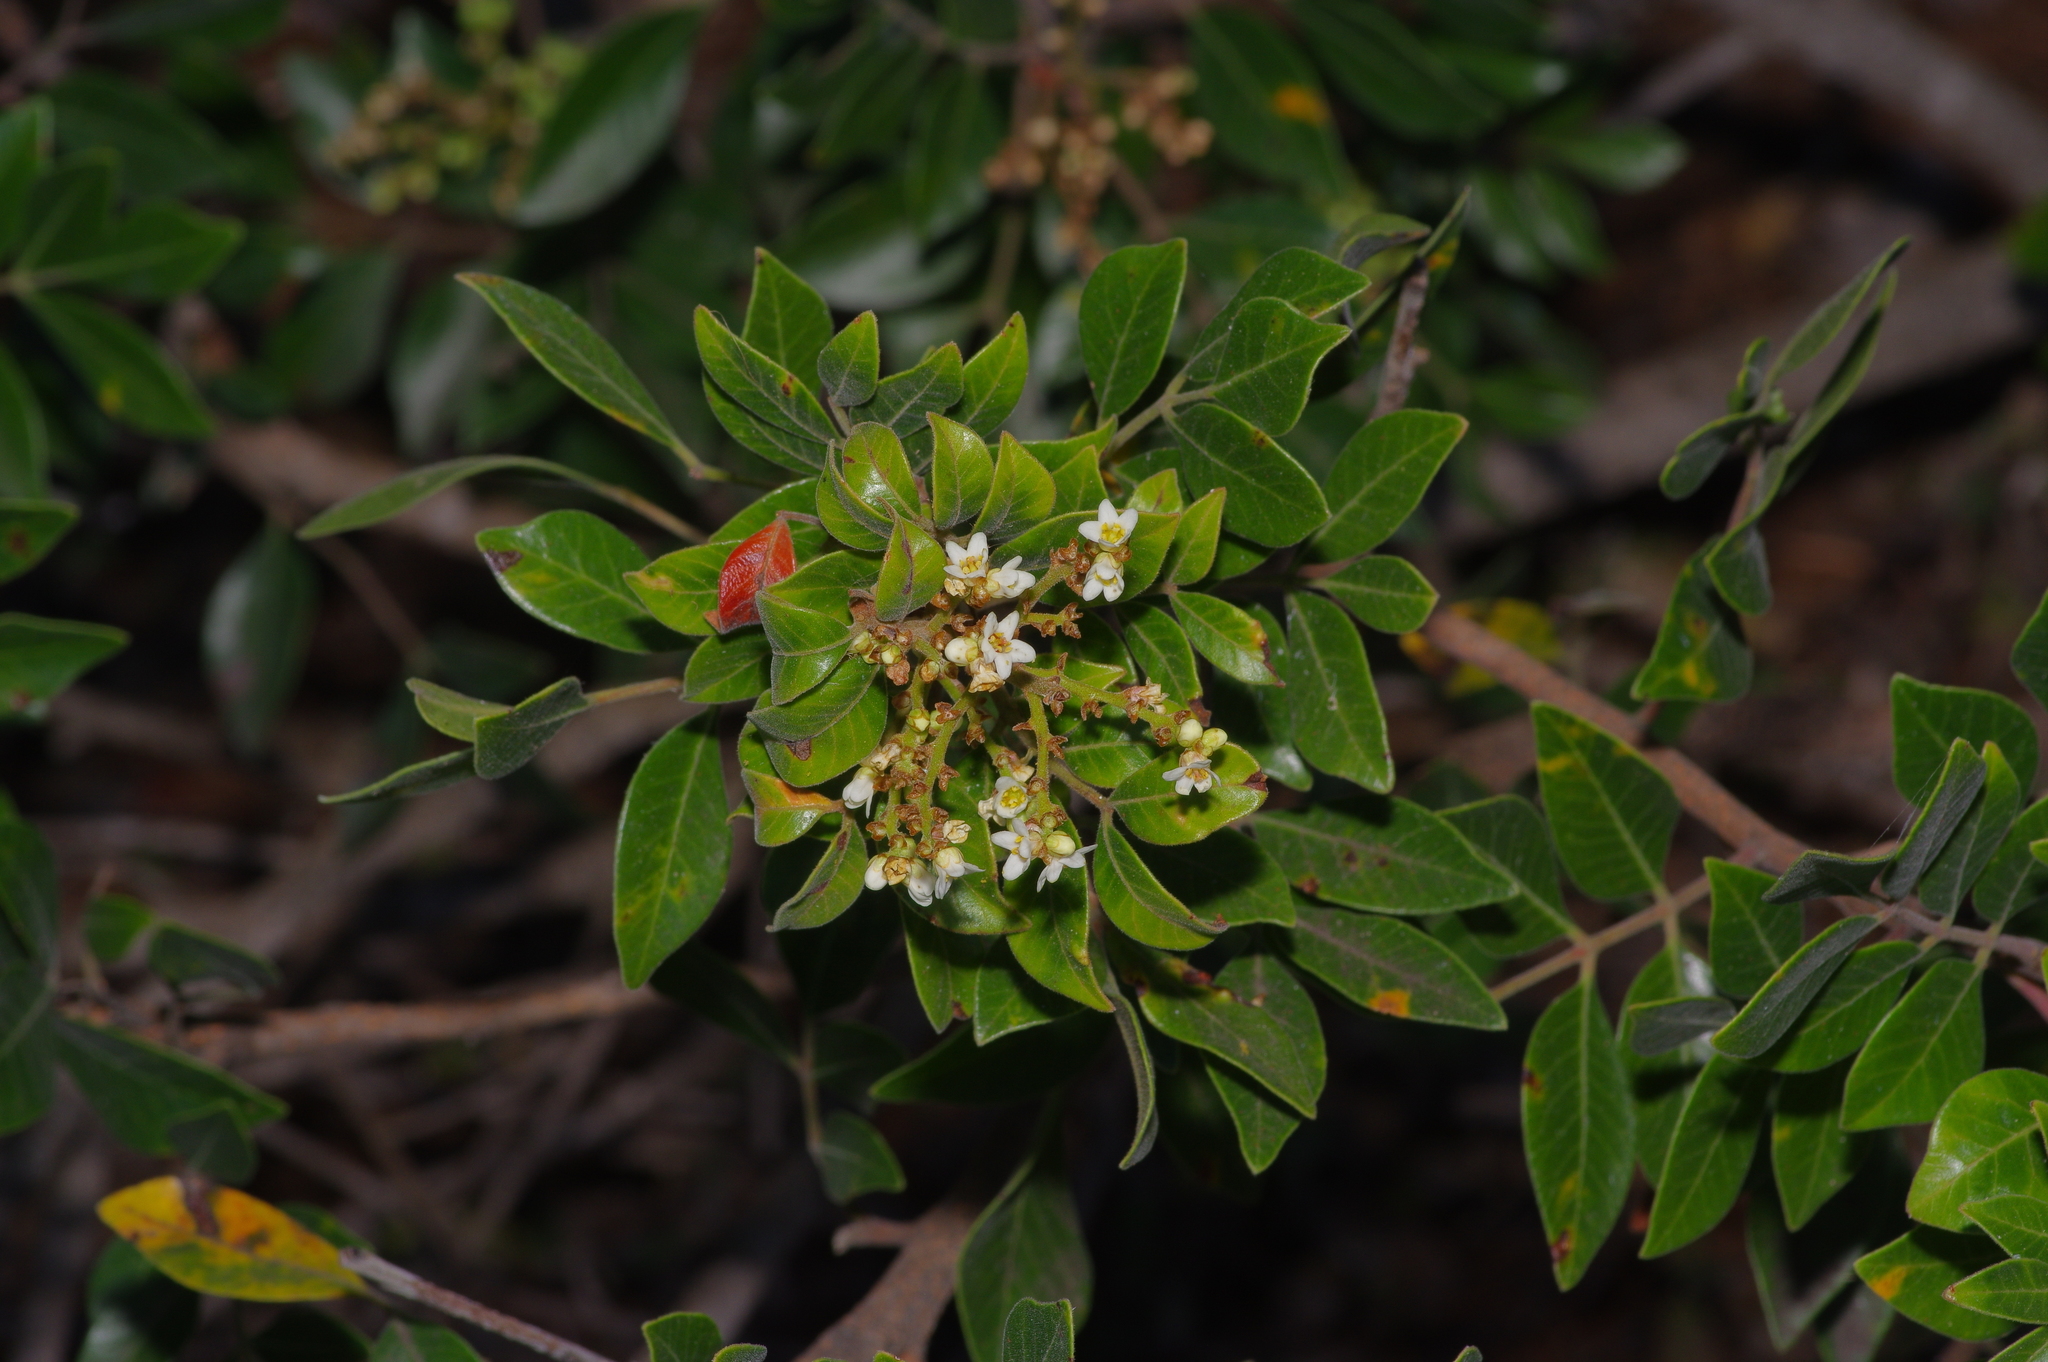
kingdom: Plantae
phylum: Tracheophyta
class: Magnoliopsida
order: Sapindales
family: Anacardiaceae
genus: Rhus
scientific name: Rhus virens
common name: Evergreen sumac
